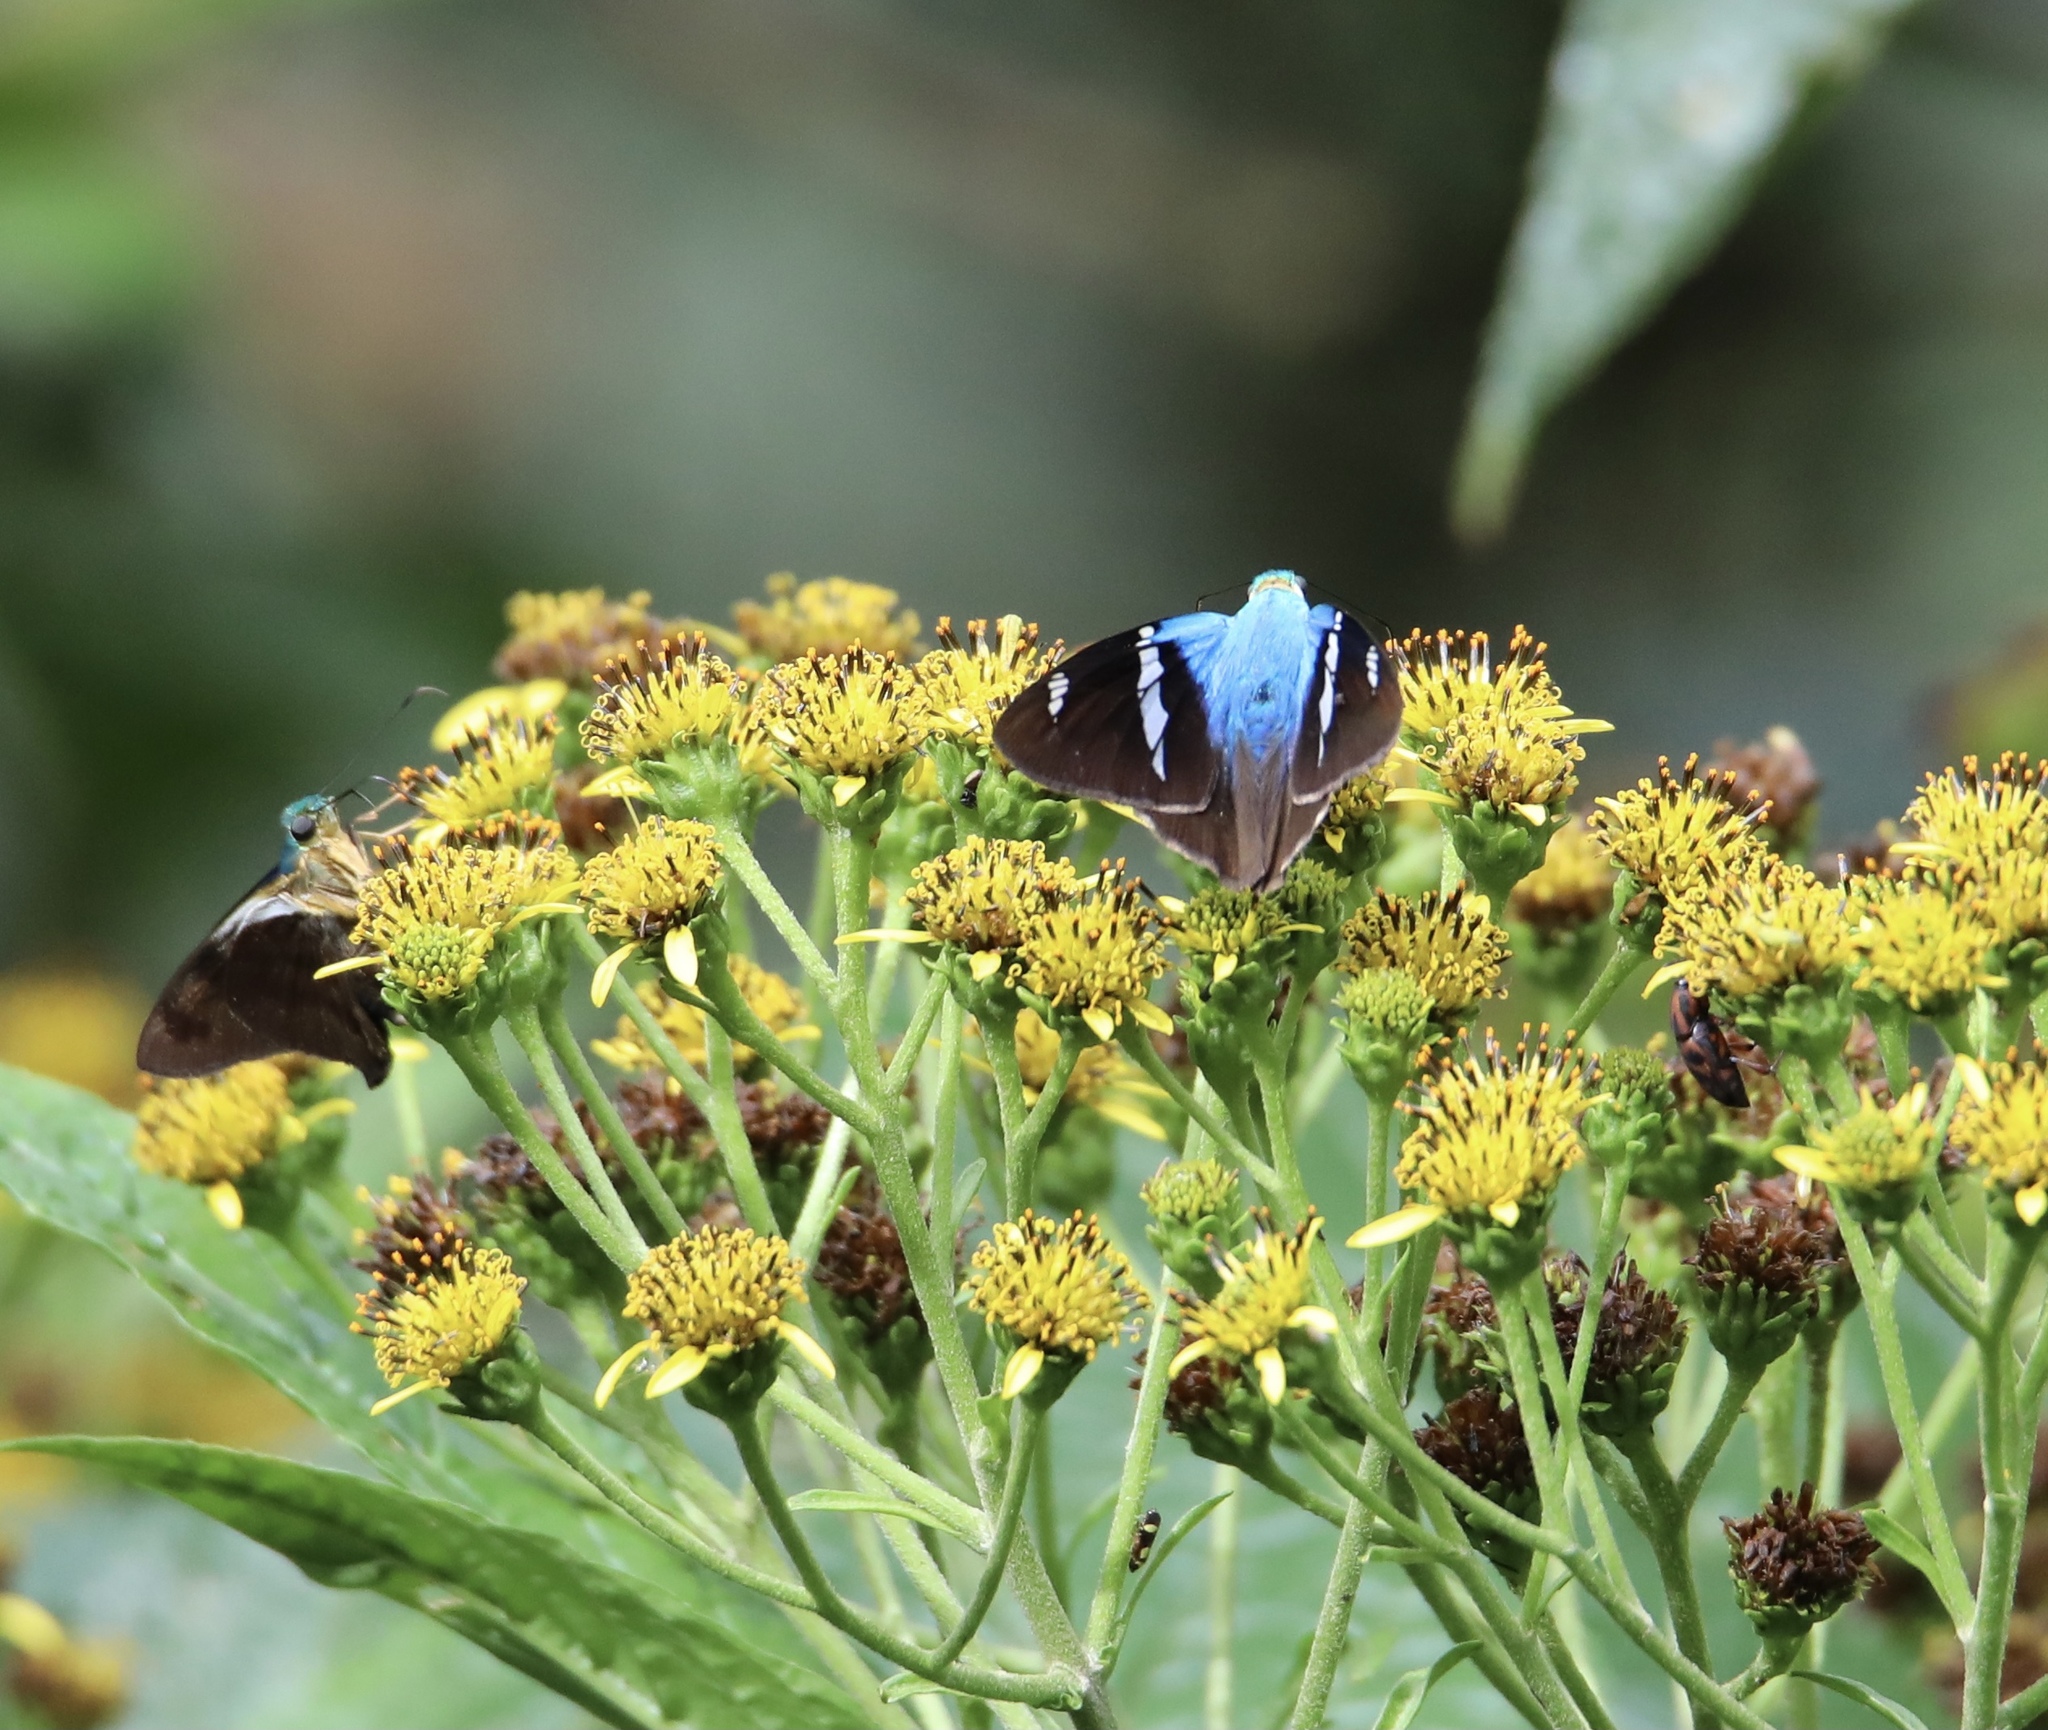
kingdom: Animalia
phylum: Arthropoda
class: Insecta
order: Lepidoptera
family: Hesperiidae
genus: Astraptes
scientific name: Astraptes fulgerator
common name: Two-barred flasher
